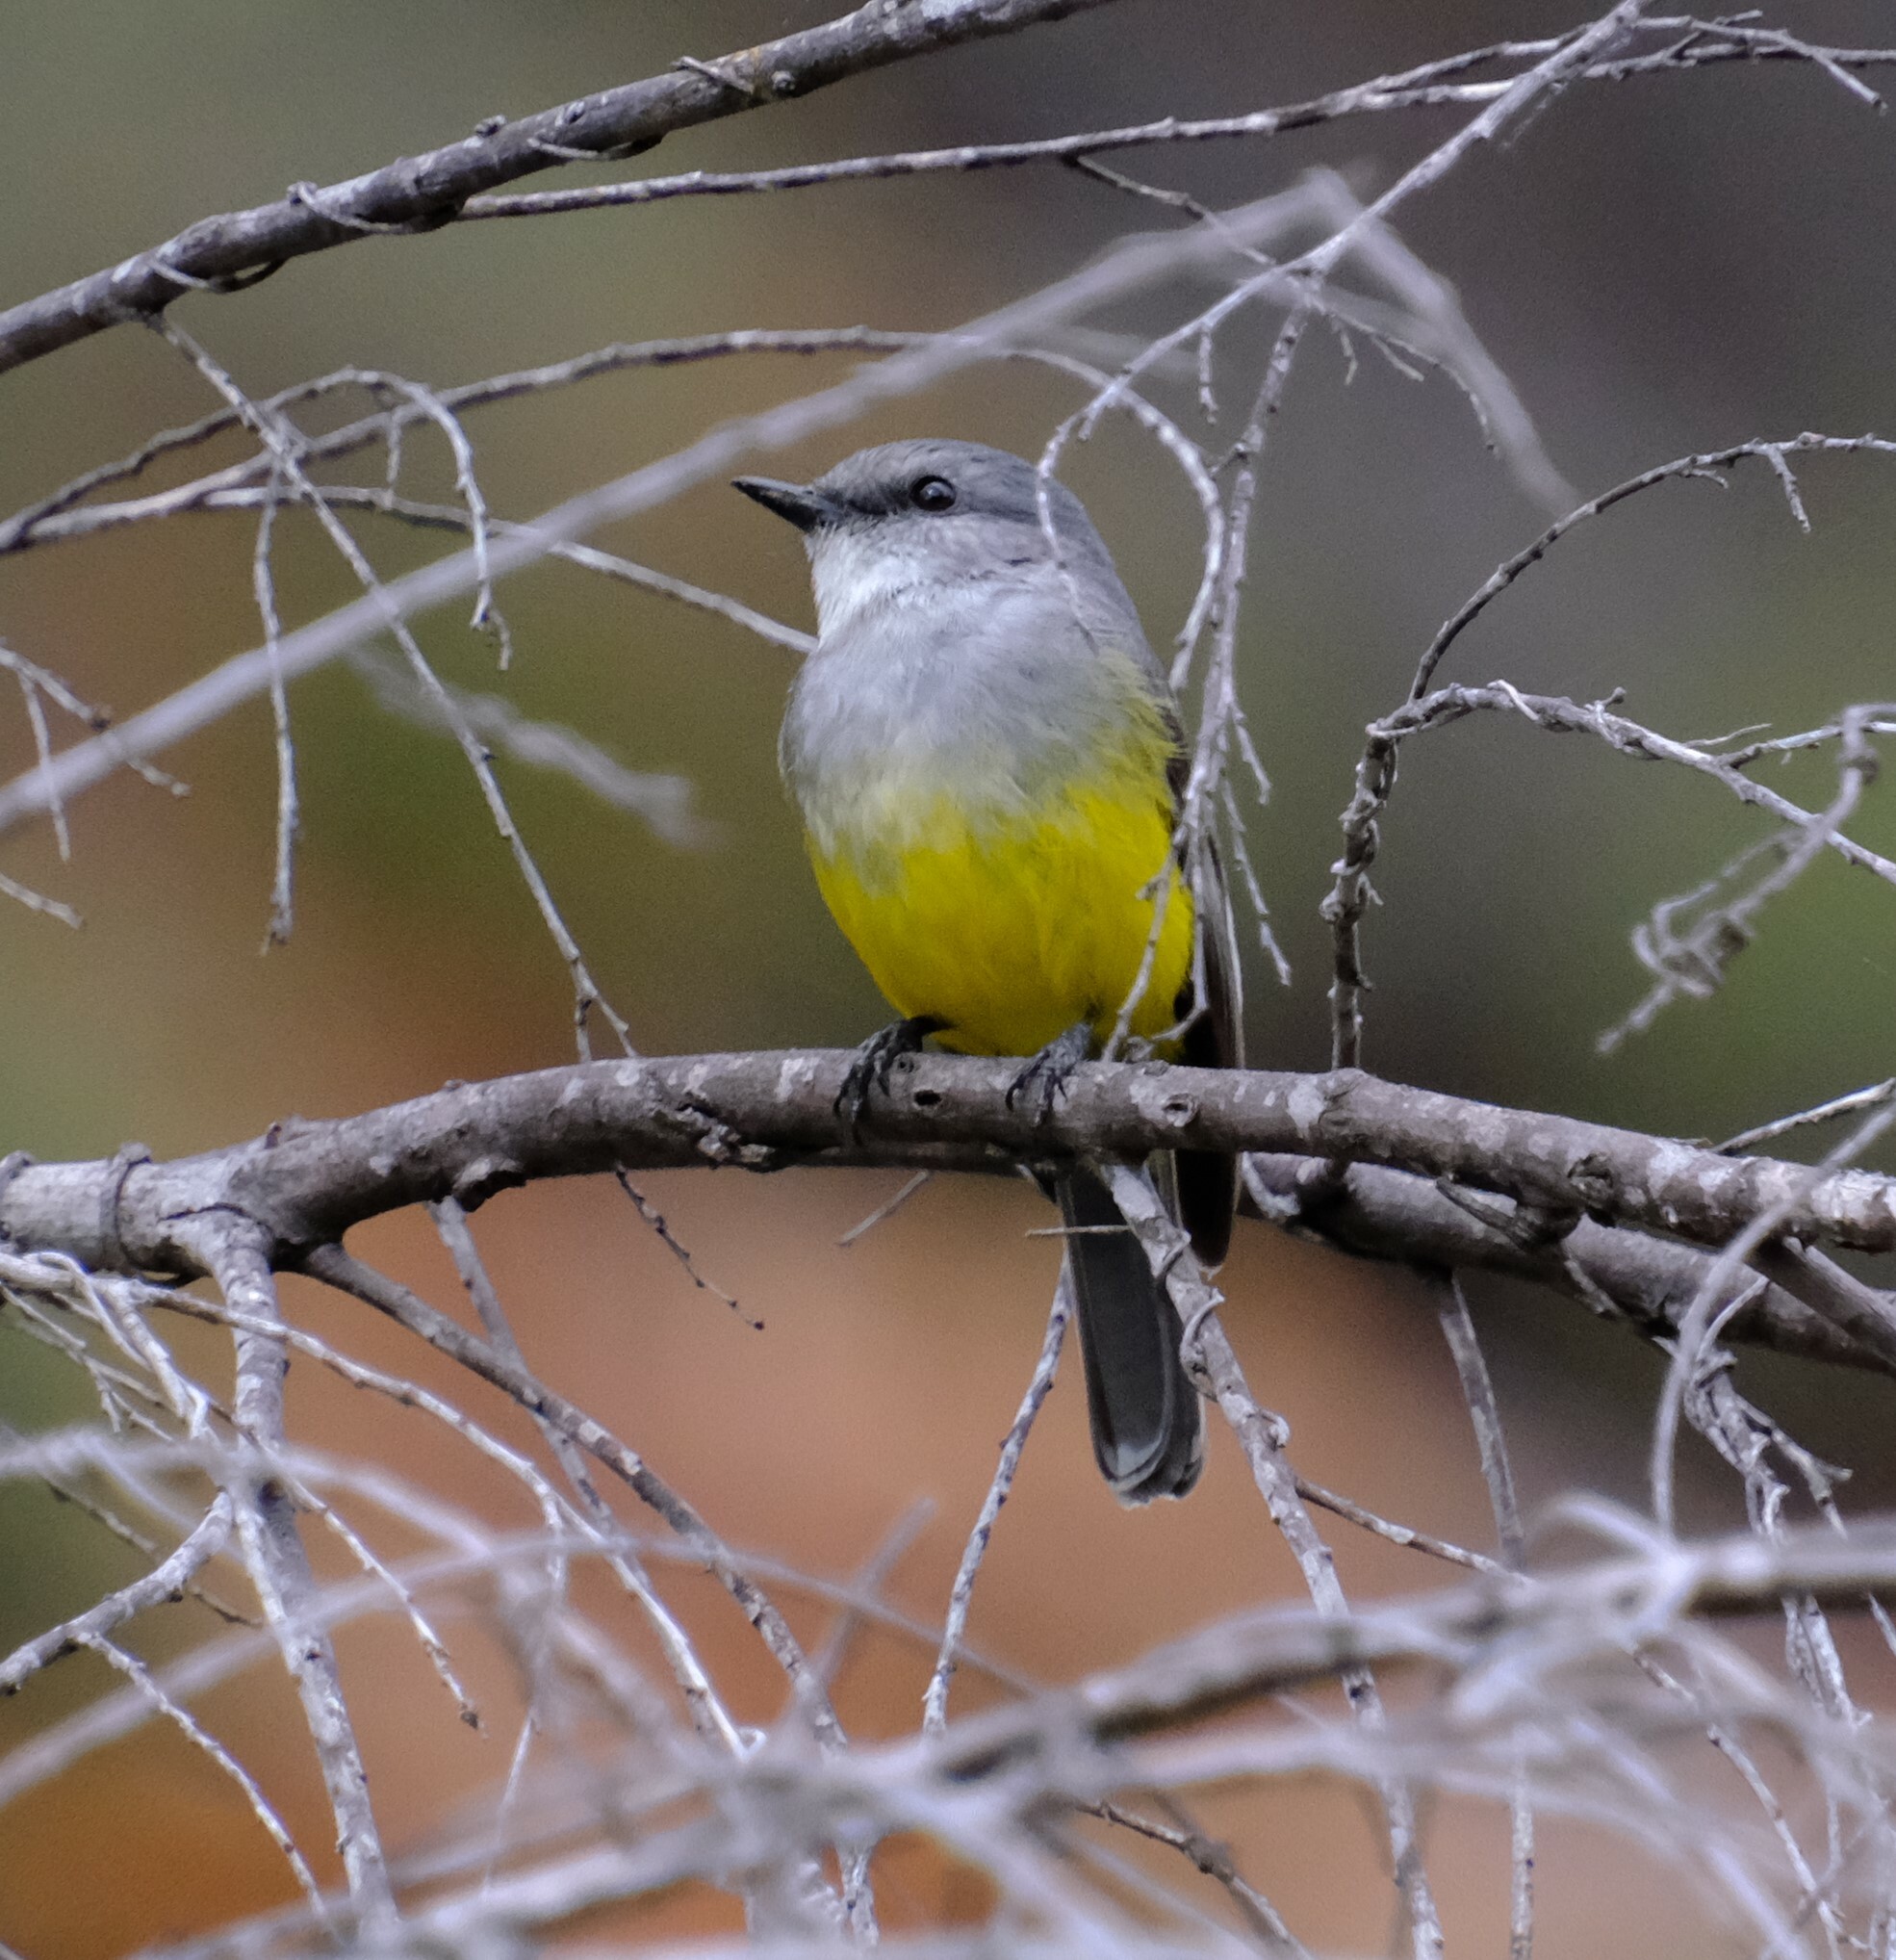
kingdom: Animalia
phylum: Chordata
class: Aves
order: Passeriformes
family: Petroicidae
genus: Eopsaltria
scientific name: Eopsaltria griseogularis
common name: Western yellow robin
